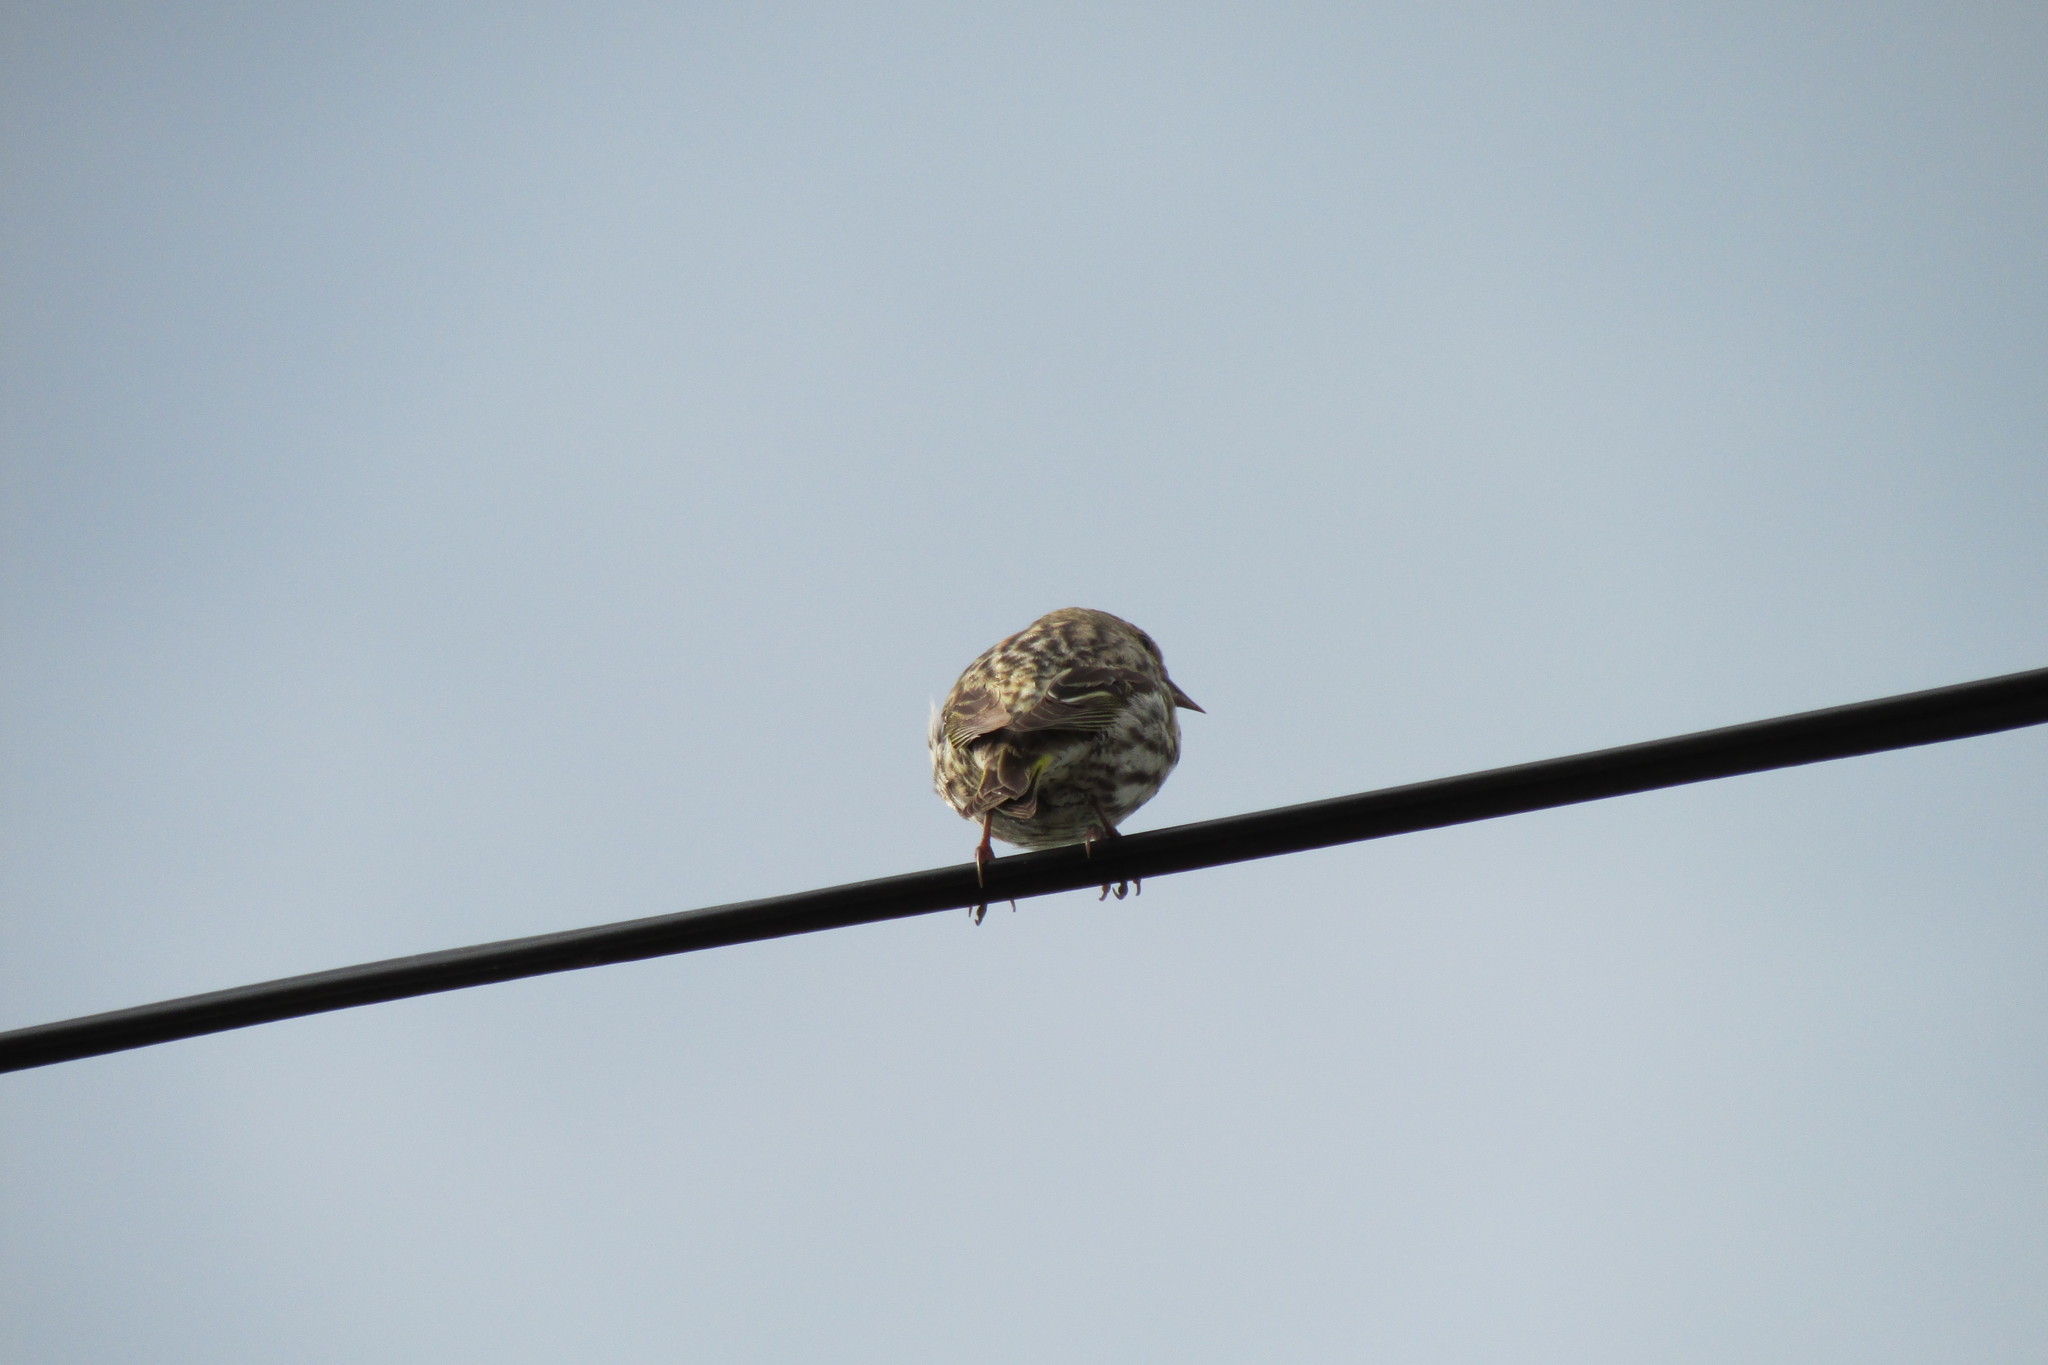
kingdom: Animalia
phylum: Chordata
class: Aves
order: Passeriformes
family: Fringillidae
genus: Spinus
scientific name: Spinus pinus
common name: Pine siskin
